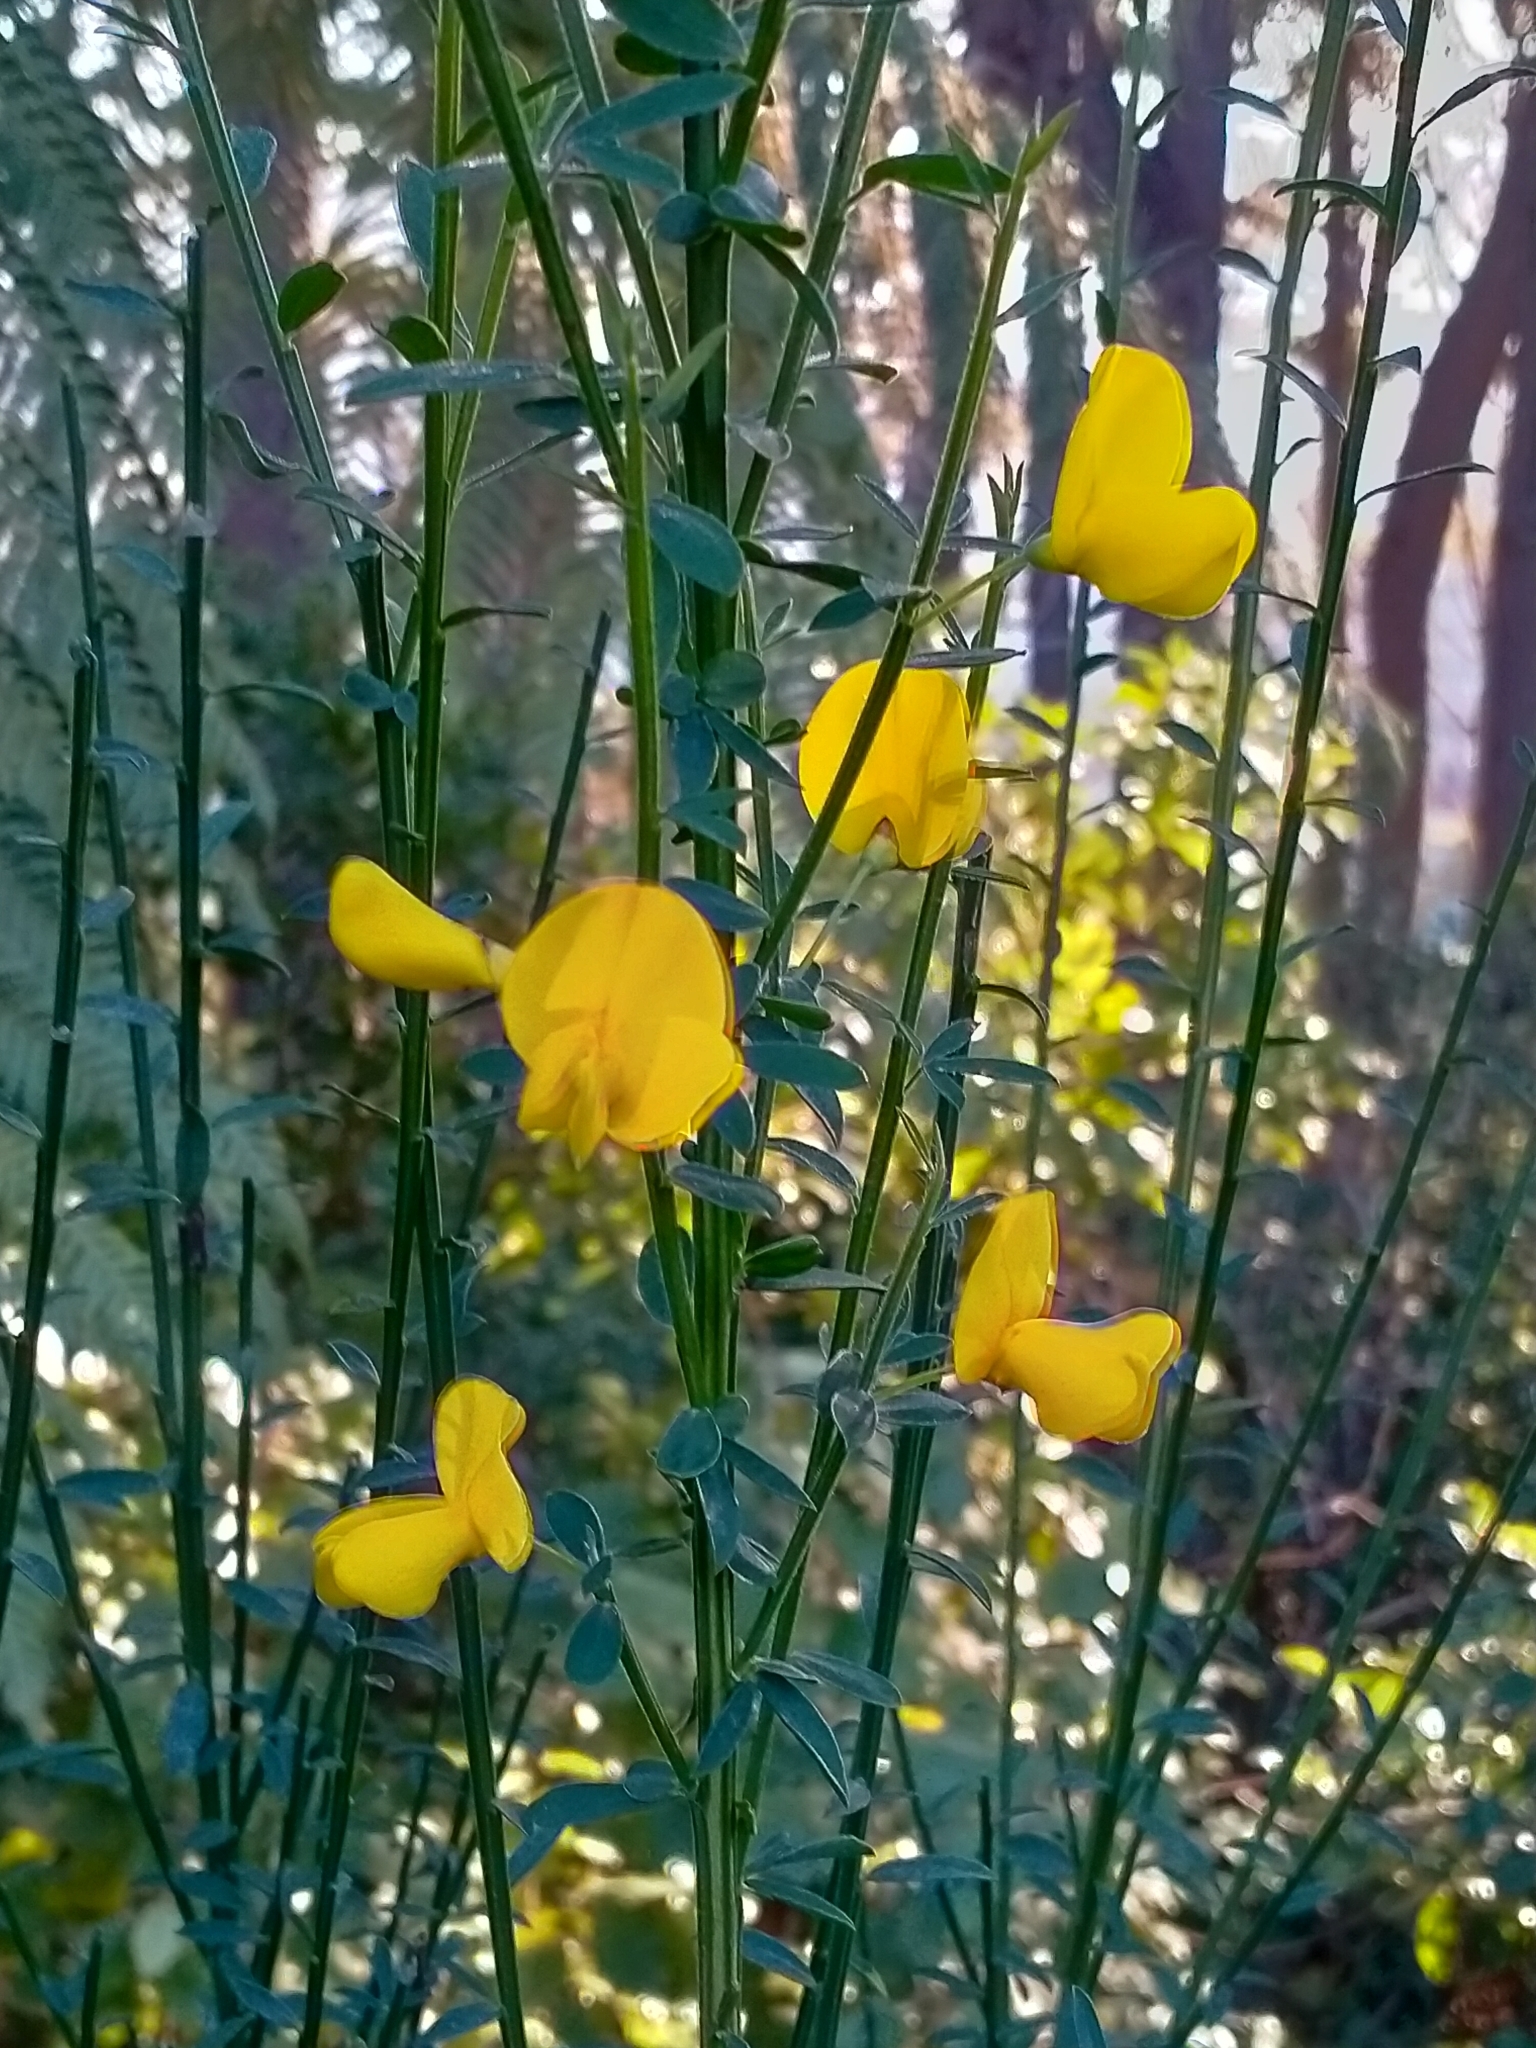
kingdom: Plantae
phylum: Tracheophyta
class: Magnoliopsida
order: Fabales
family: Fabaceae
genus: Cytisus
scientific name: Cytisus scoparius
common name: Scotch broom
